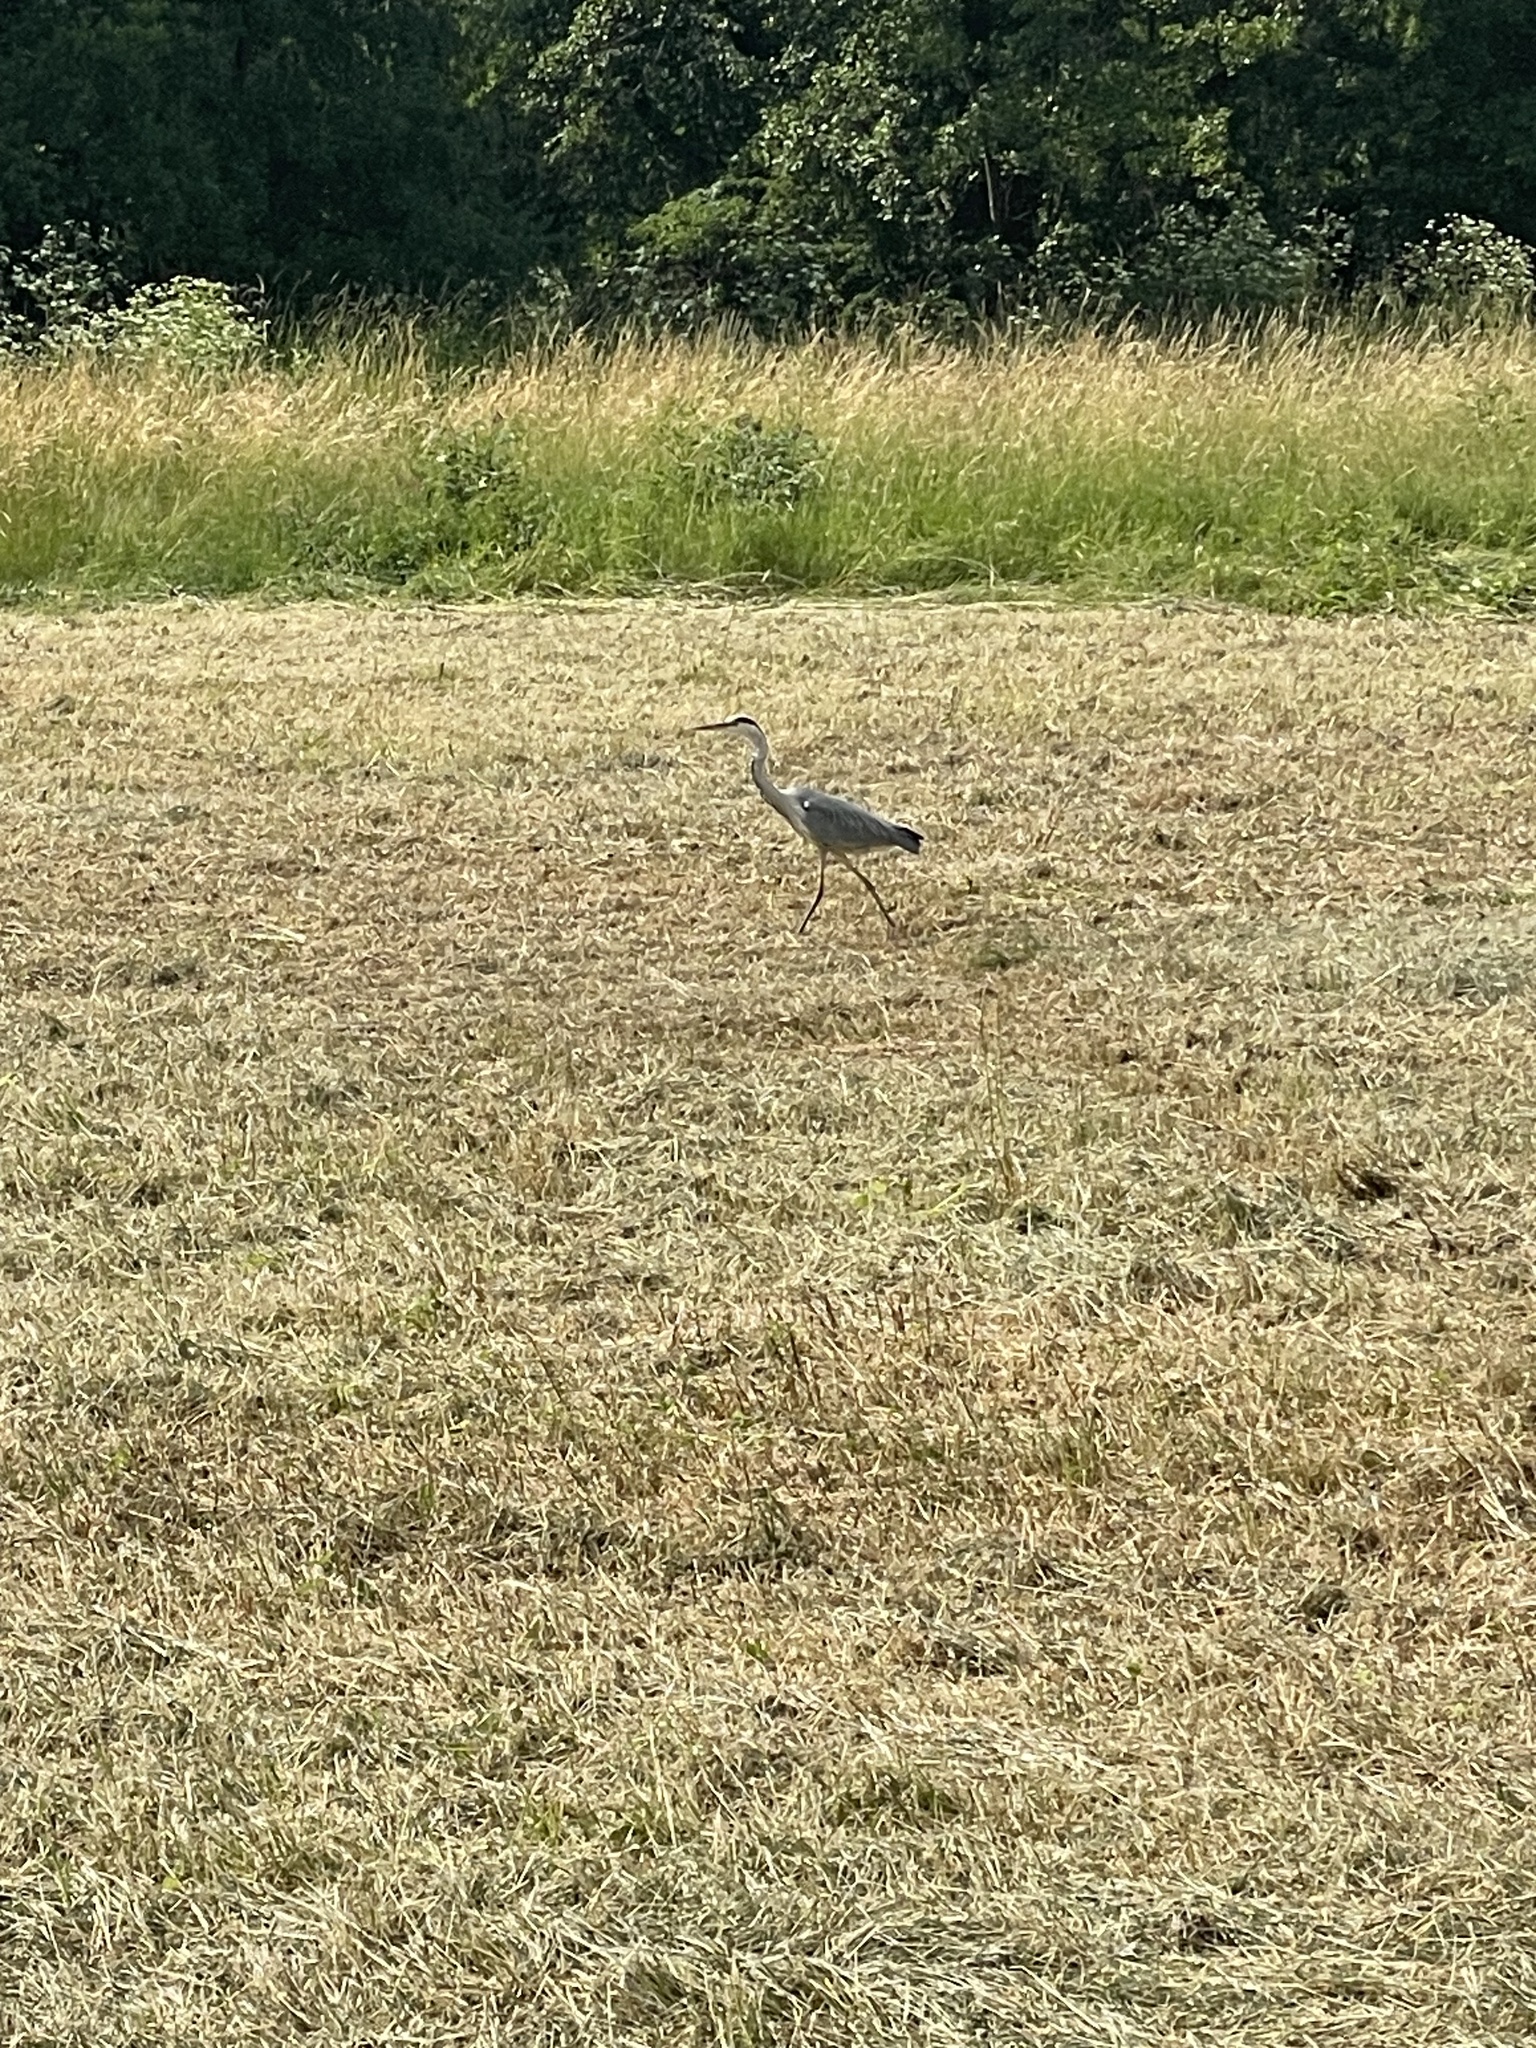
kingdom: Animalia
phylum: Chordata
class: Aves
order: Pelecaniformes
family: Ardeidae
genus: Ardea
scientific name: Ardea cinerea
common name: Grey heron
